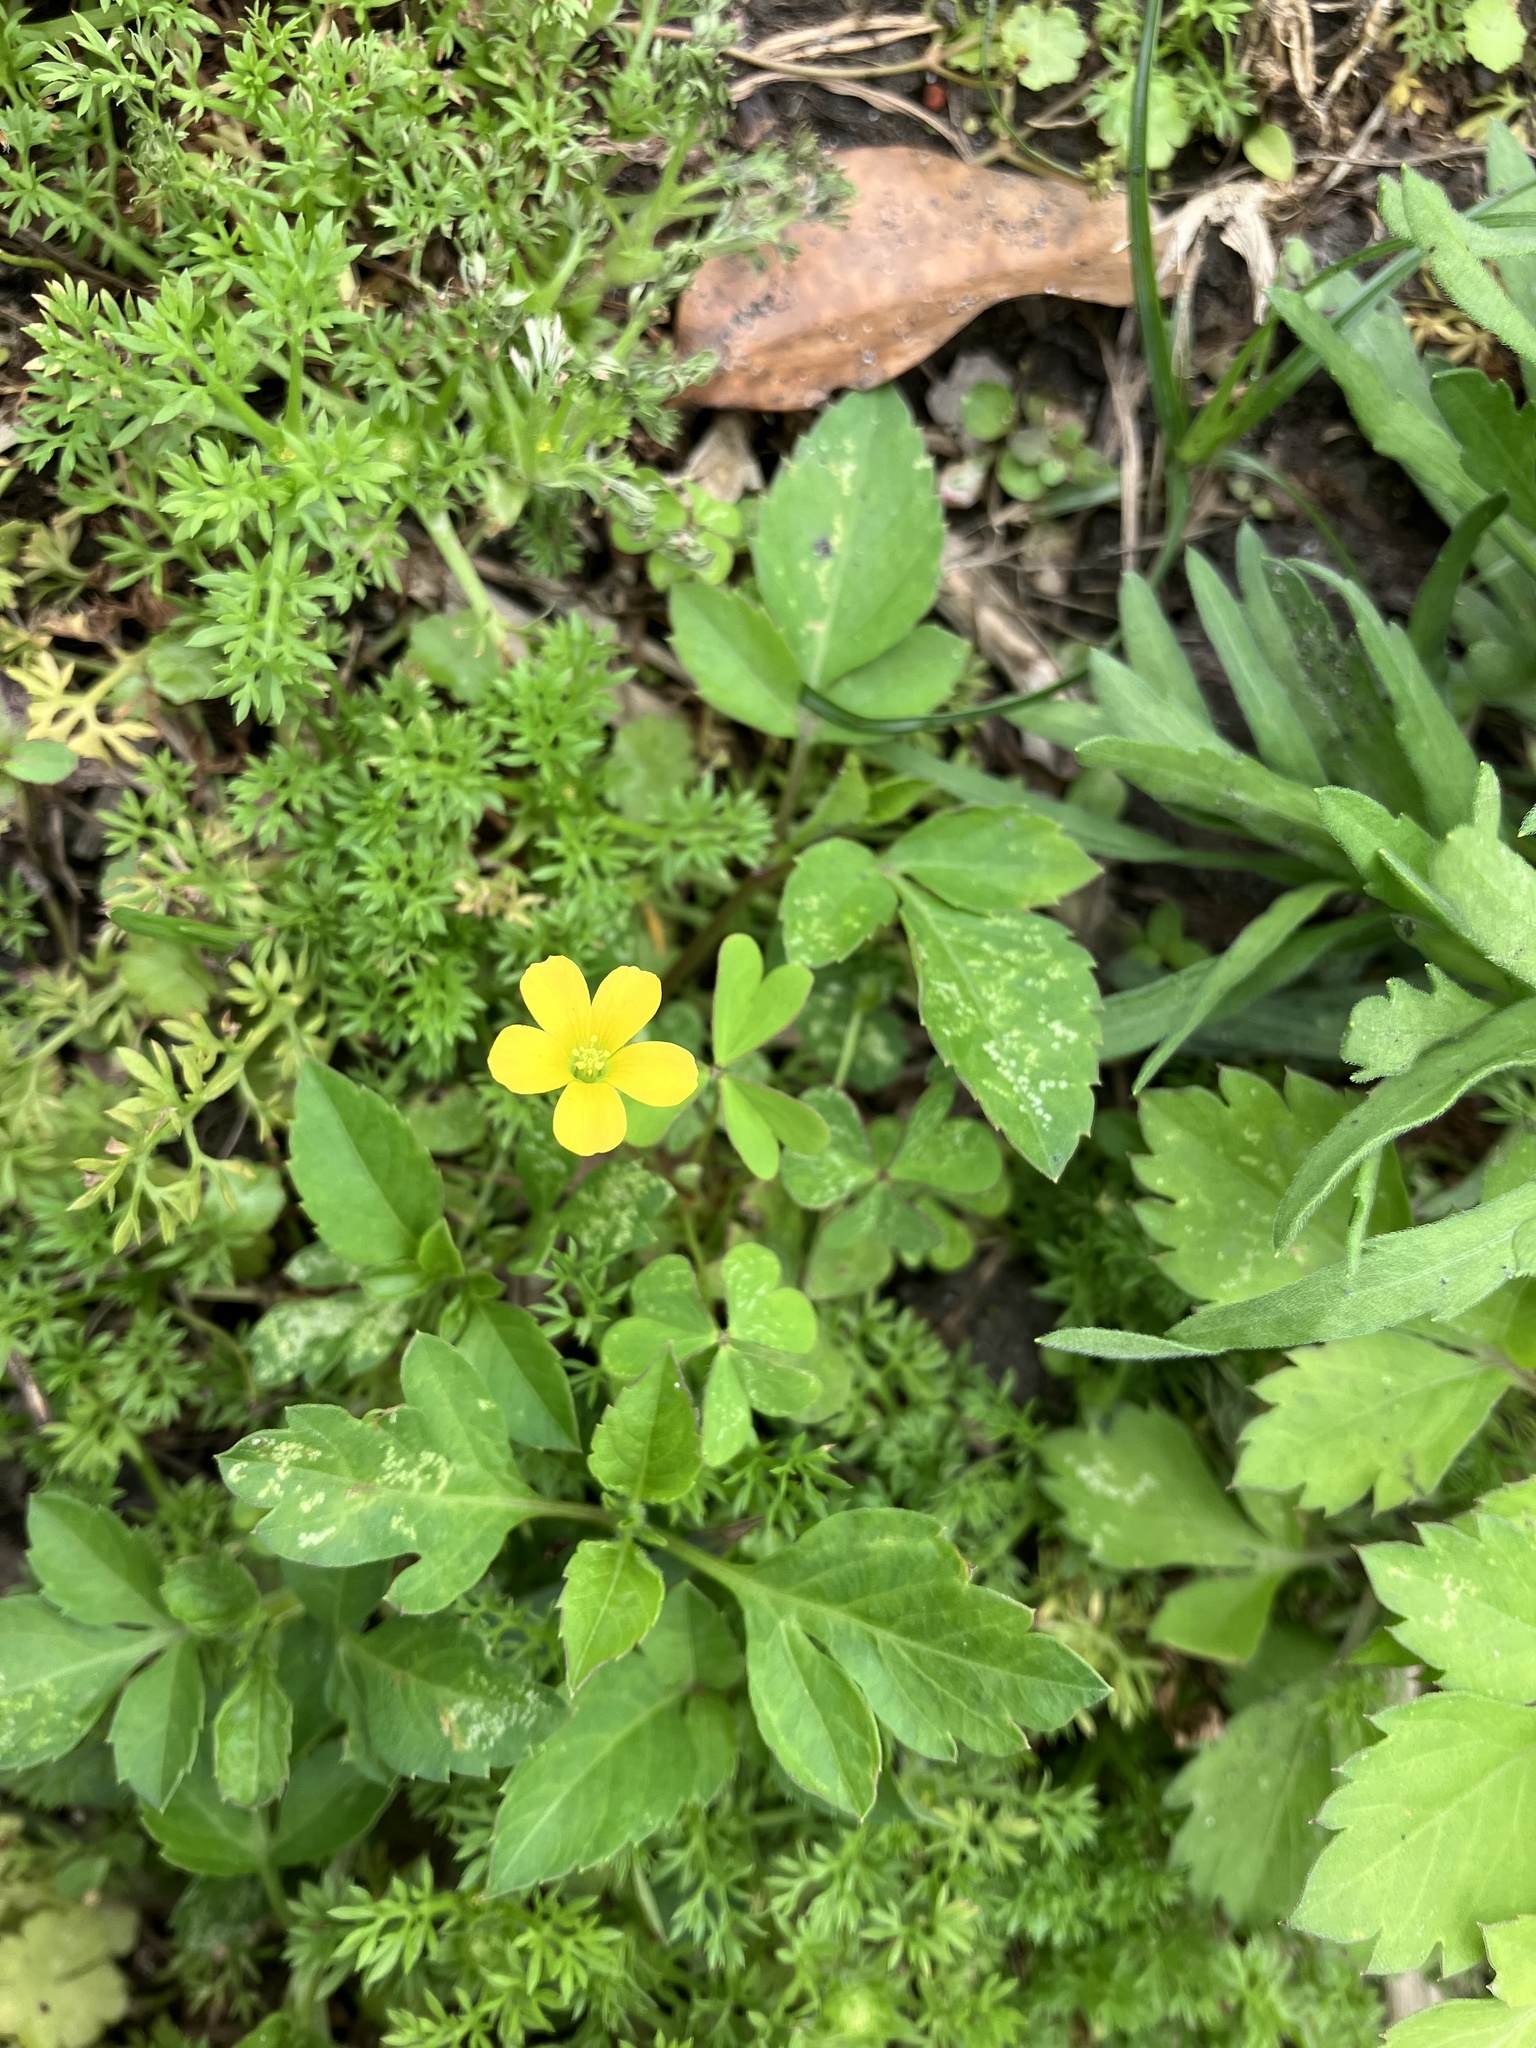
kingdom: Plantae
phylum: Tracheophyta
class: Magnoliopsida
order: Oxalidales
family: Oxalidaceae
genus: Oxalis
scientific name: Oxalis corniculata
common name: Procumbent yellow-sorrel
